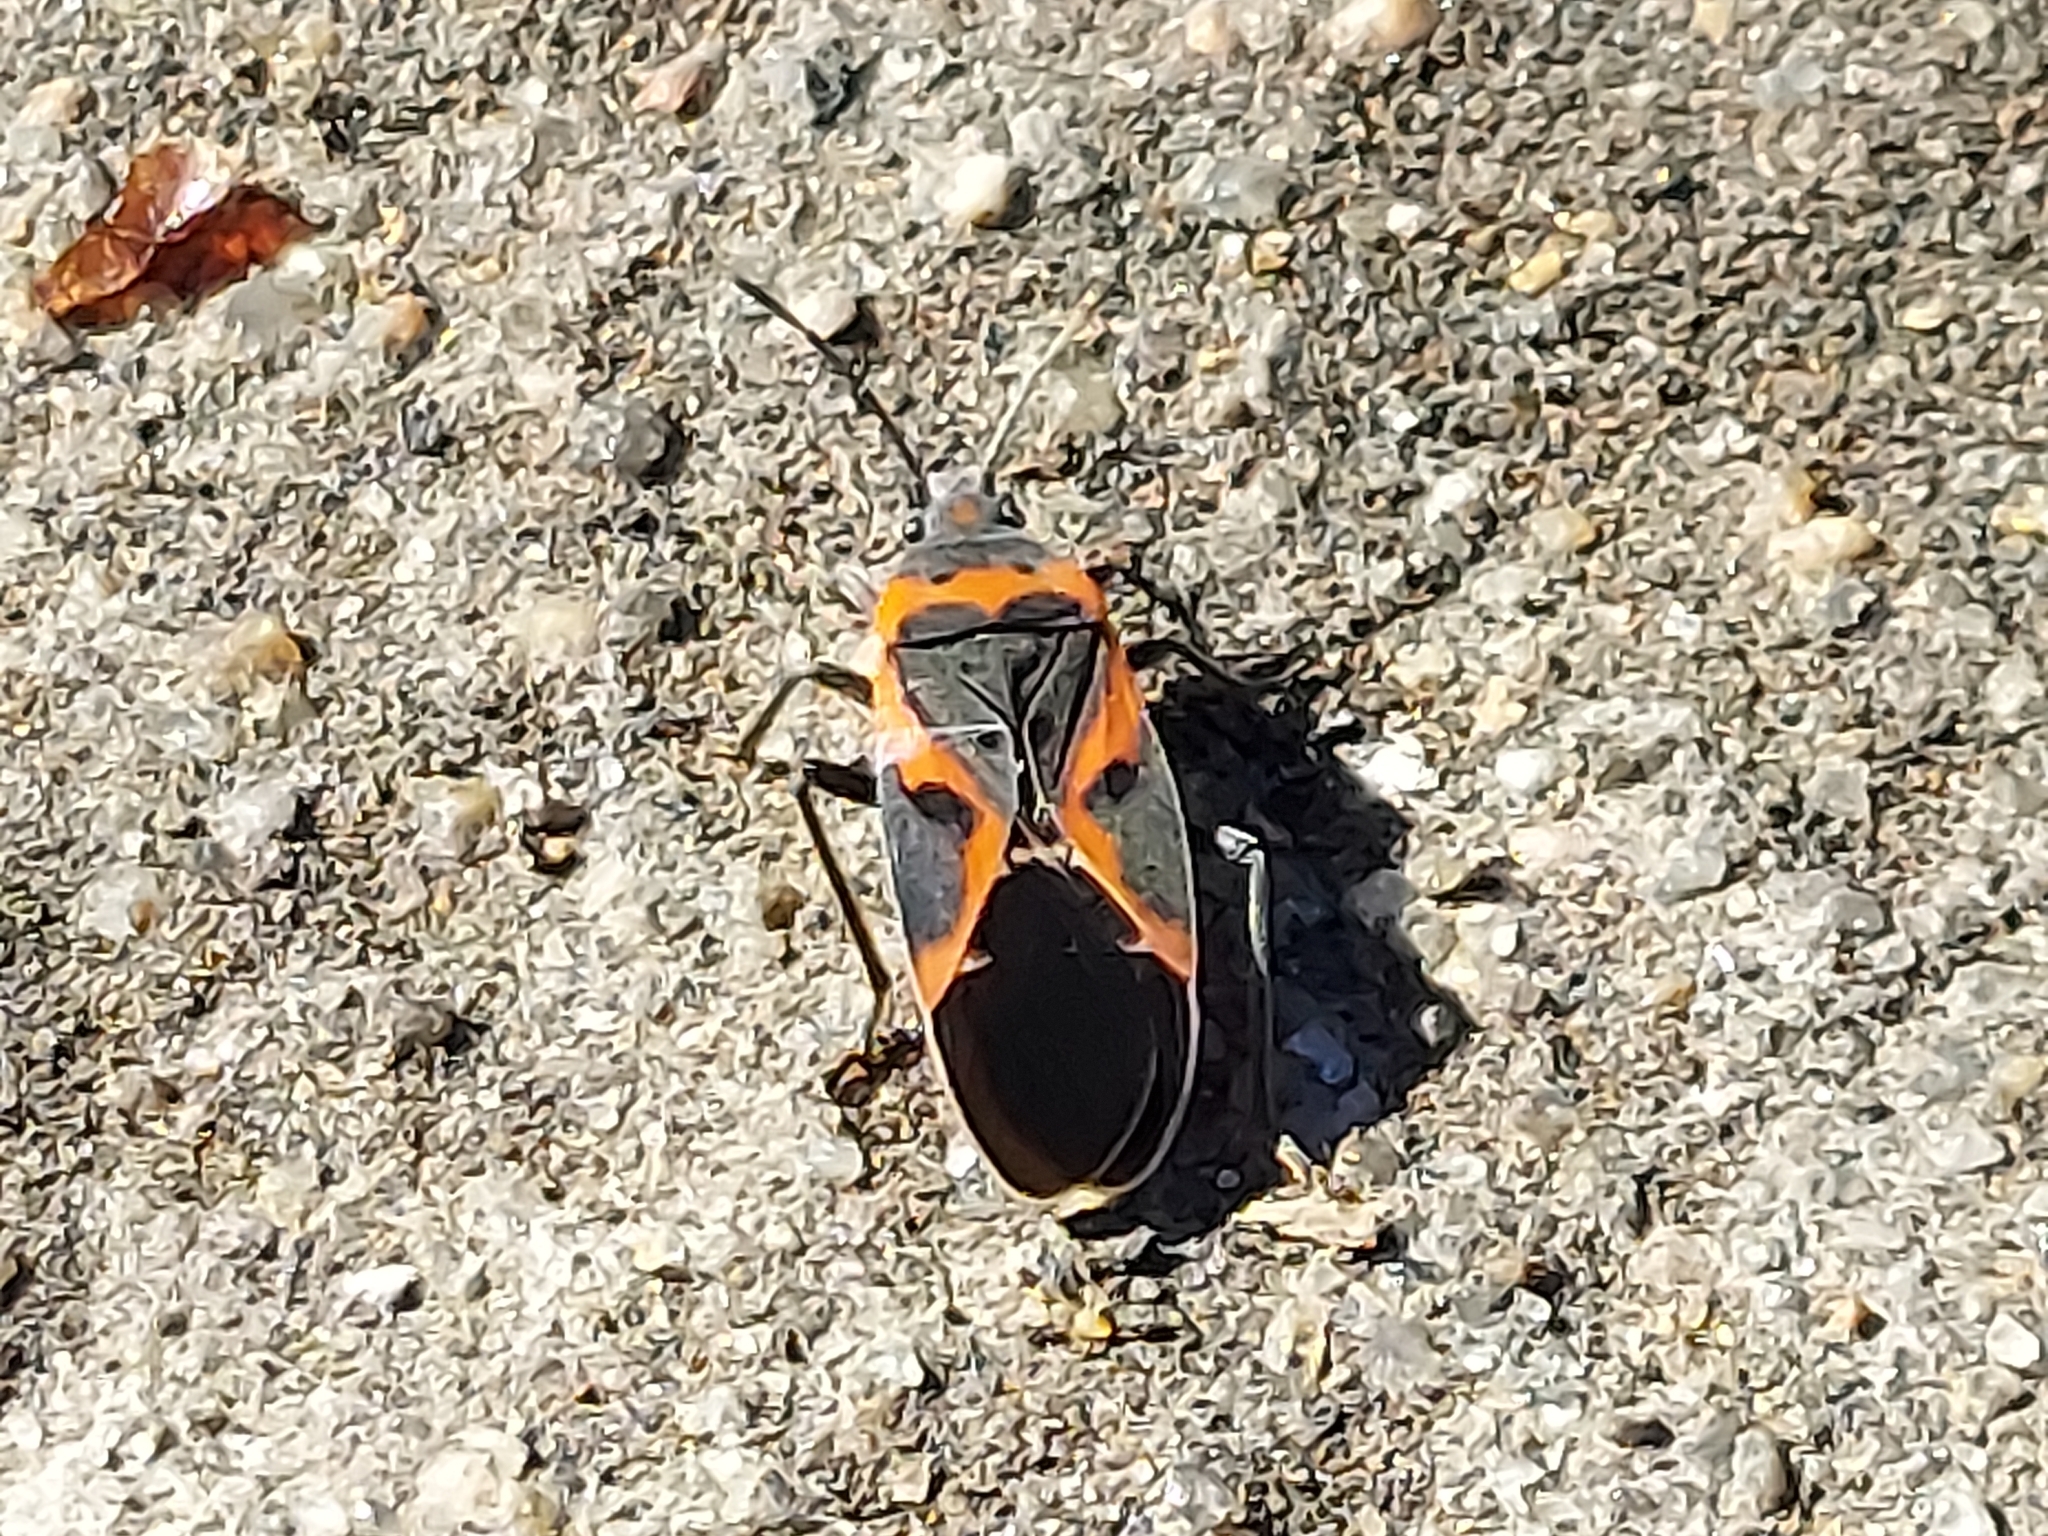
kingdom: Animalia
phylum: Arthropoda
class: Insecta
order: Hemiptera
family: Lygaeidae
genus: Lygaeus
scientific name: Lygaeus kalmii
